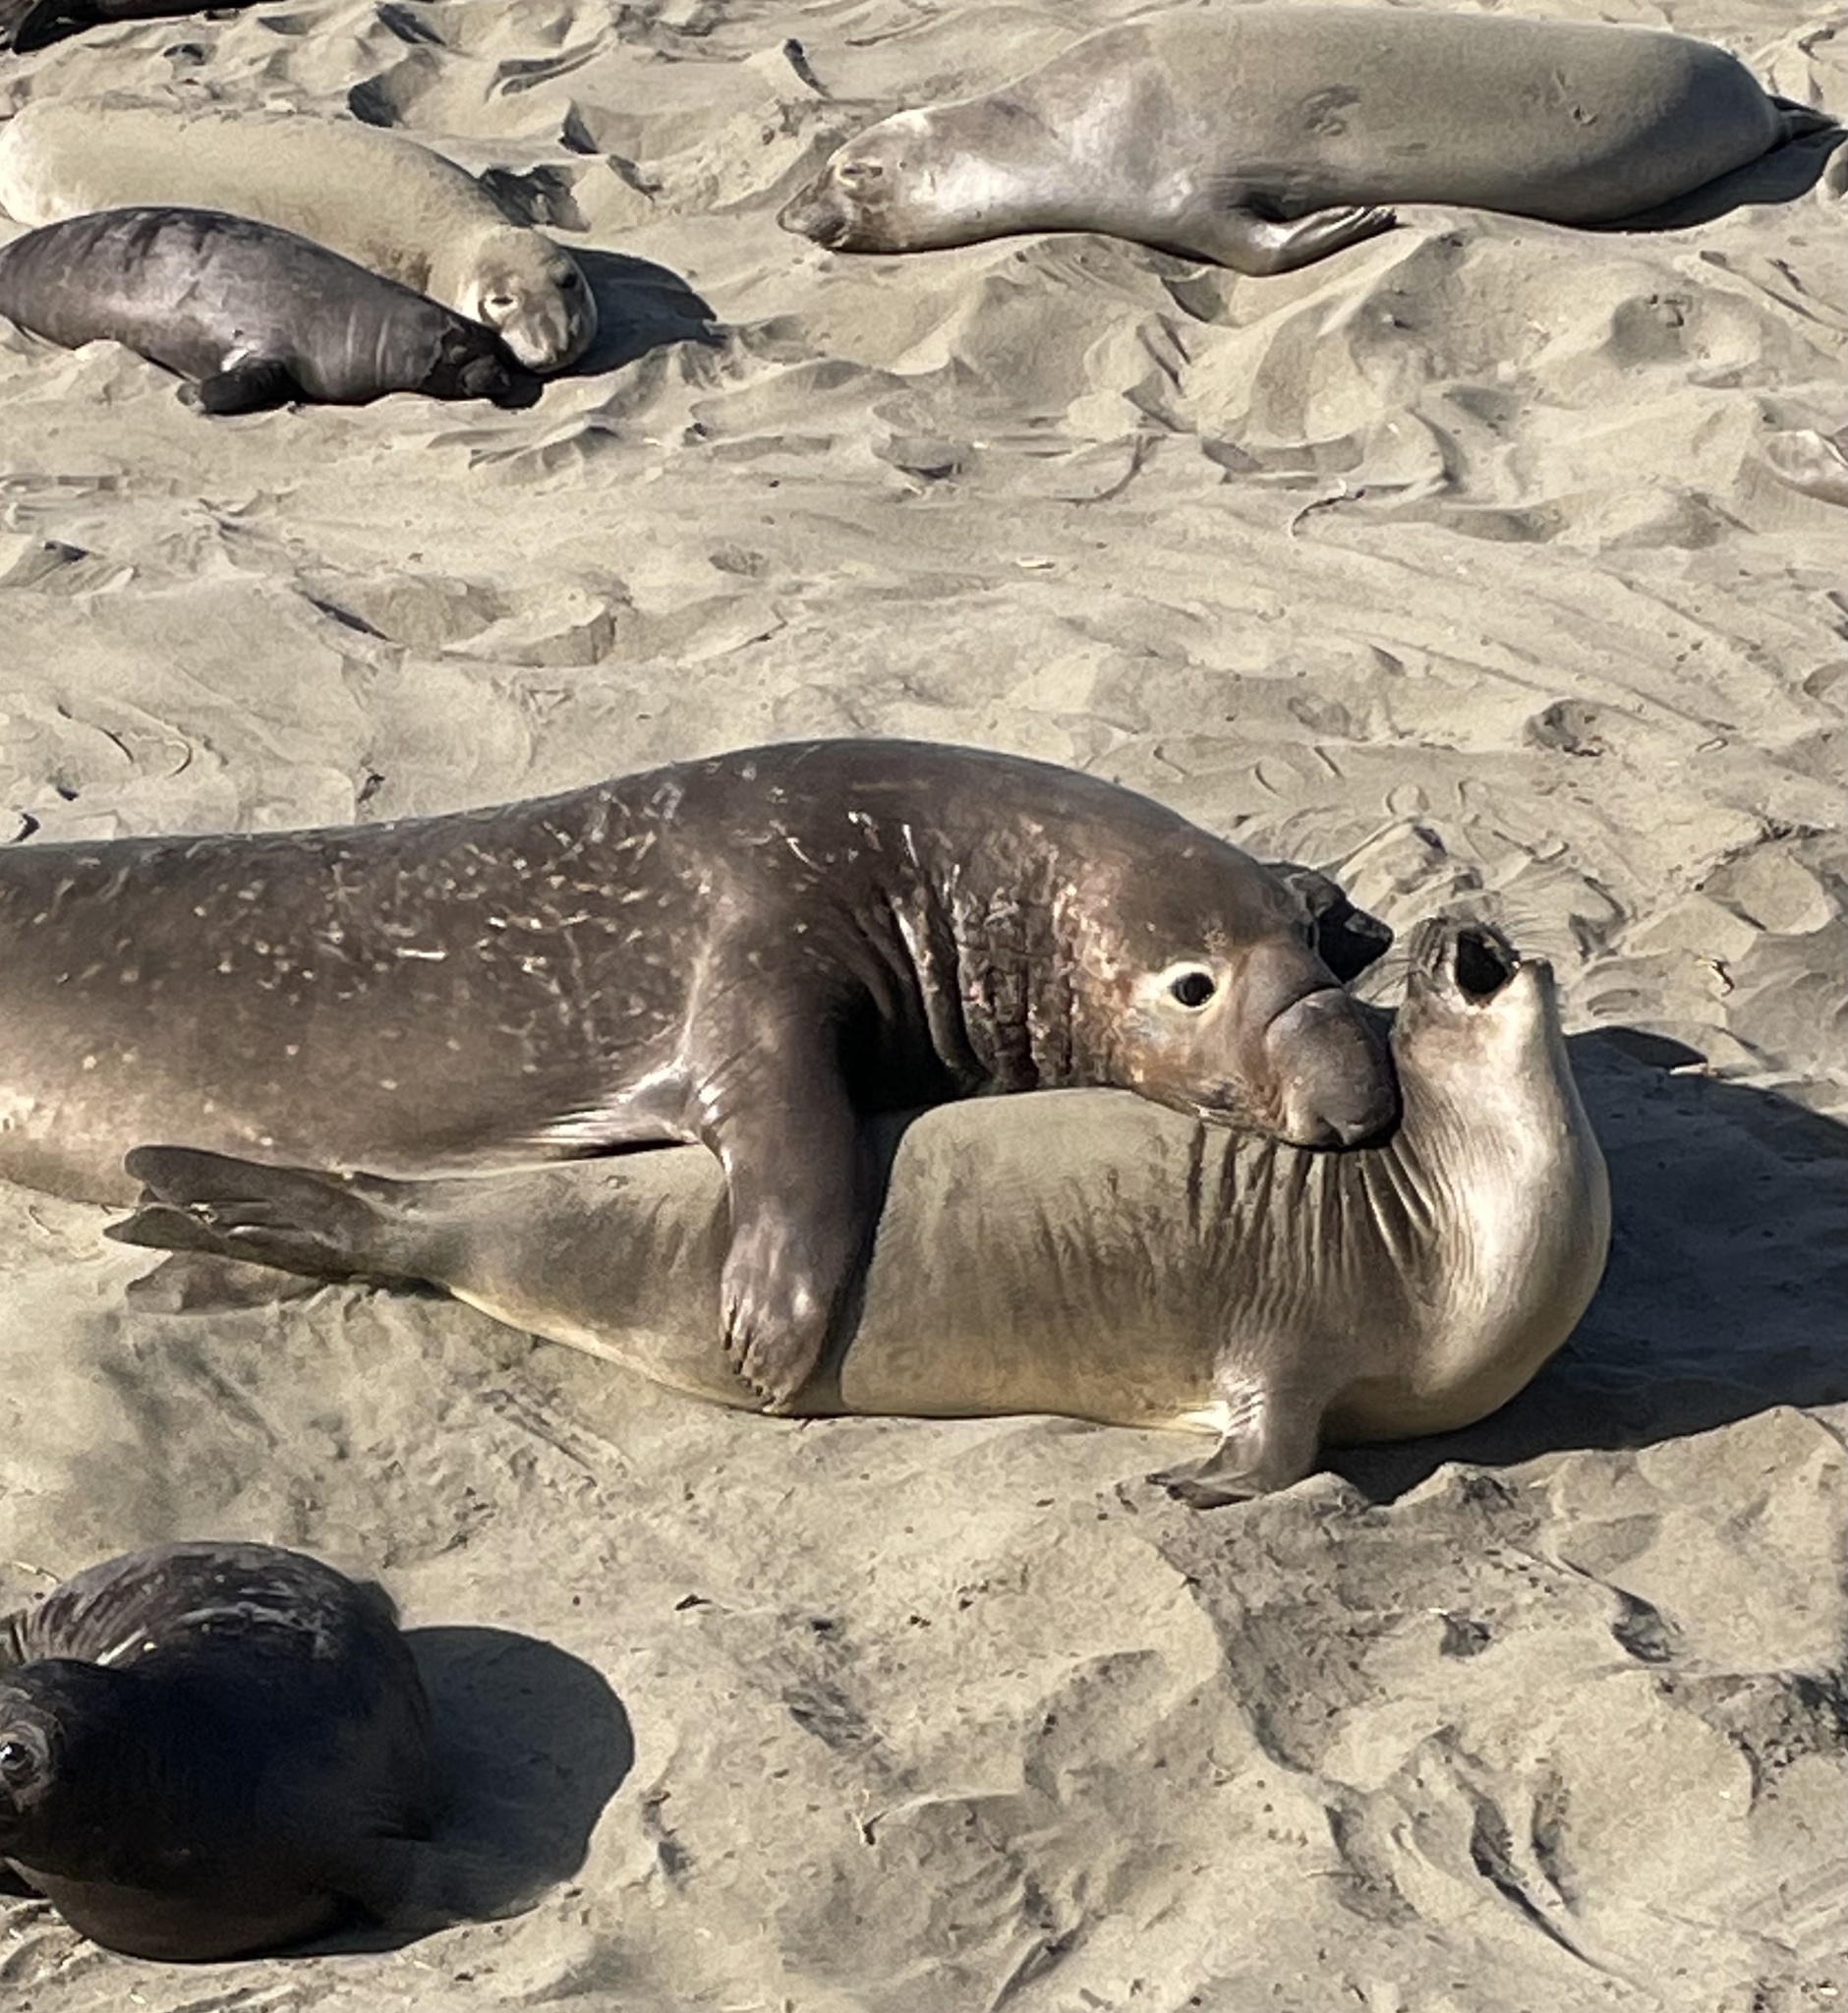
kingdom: Animalia
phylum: Chordata
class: Mammalia
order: Carnivora
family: Phocidae
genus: Mirounga
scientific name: Mirounga angustirostris
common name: Northern elephant seal
